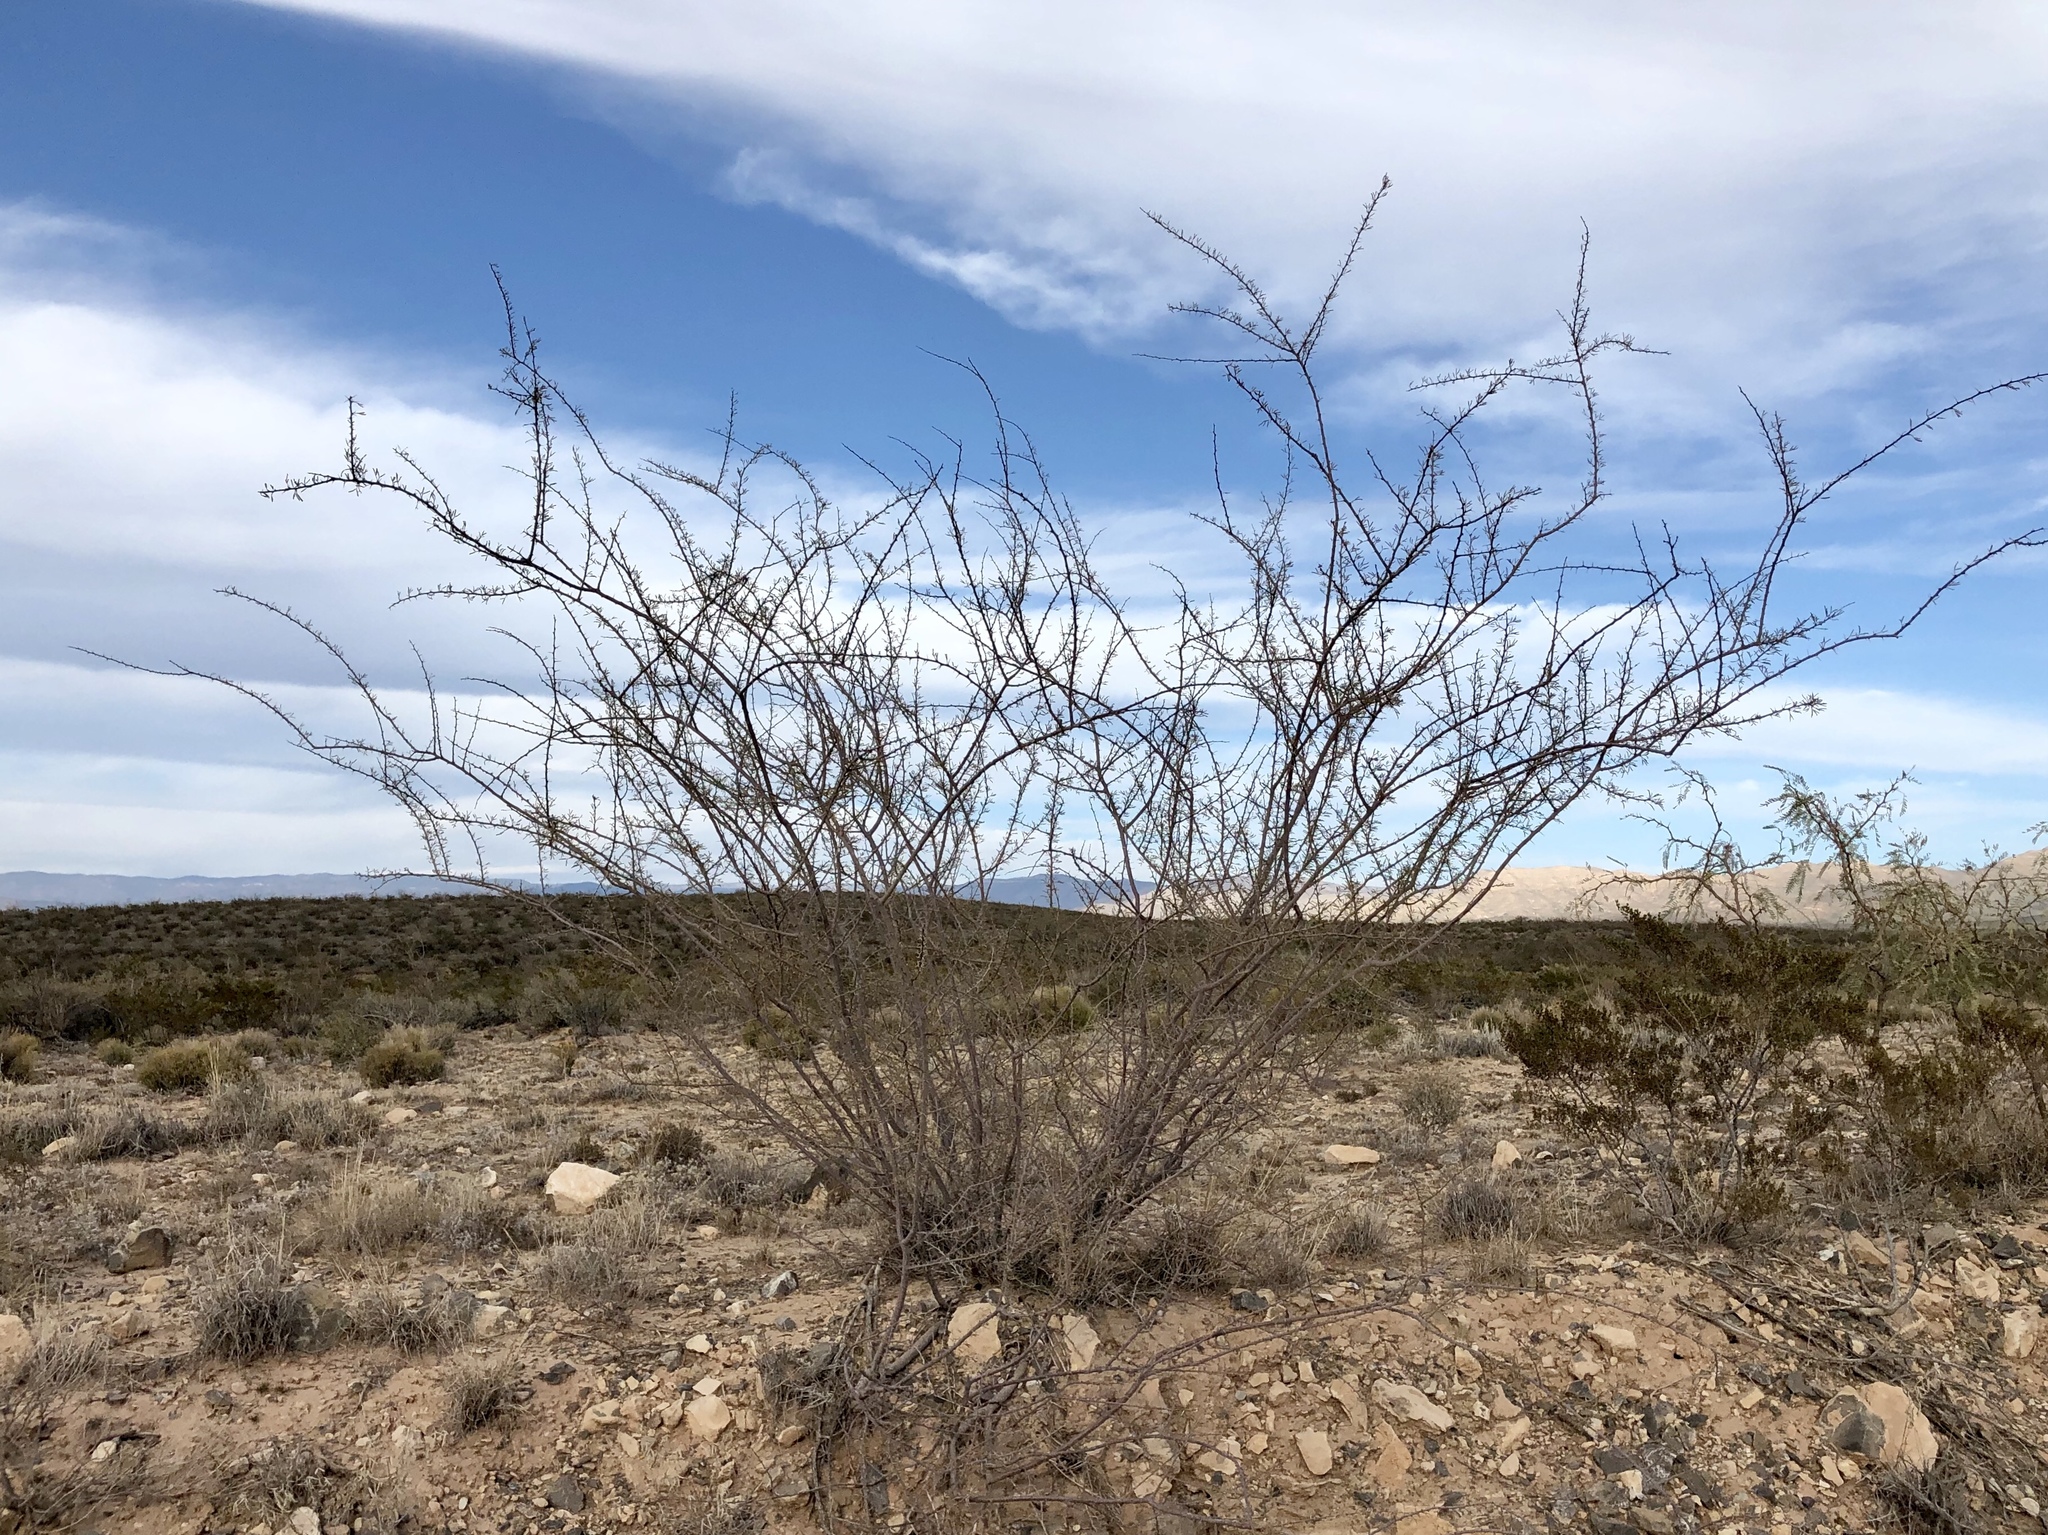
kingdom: Plantae
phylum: Tracheophyta
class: Magnoliopsida
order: Fabales
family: Fabaceae
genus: Vachellia
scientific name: Vachellia vernicosa
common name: Viscid acacia
